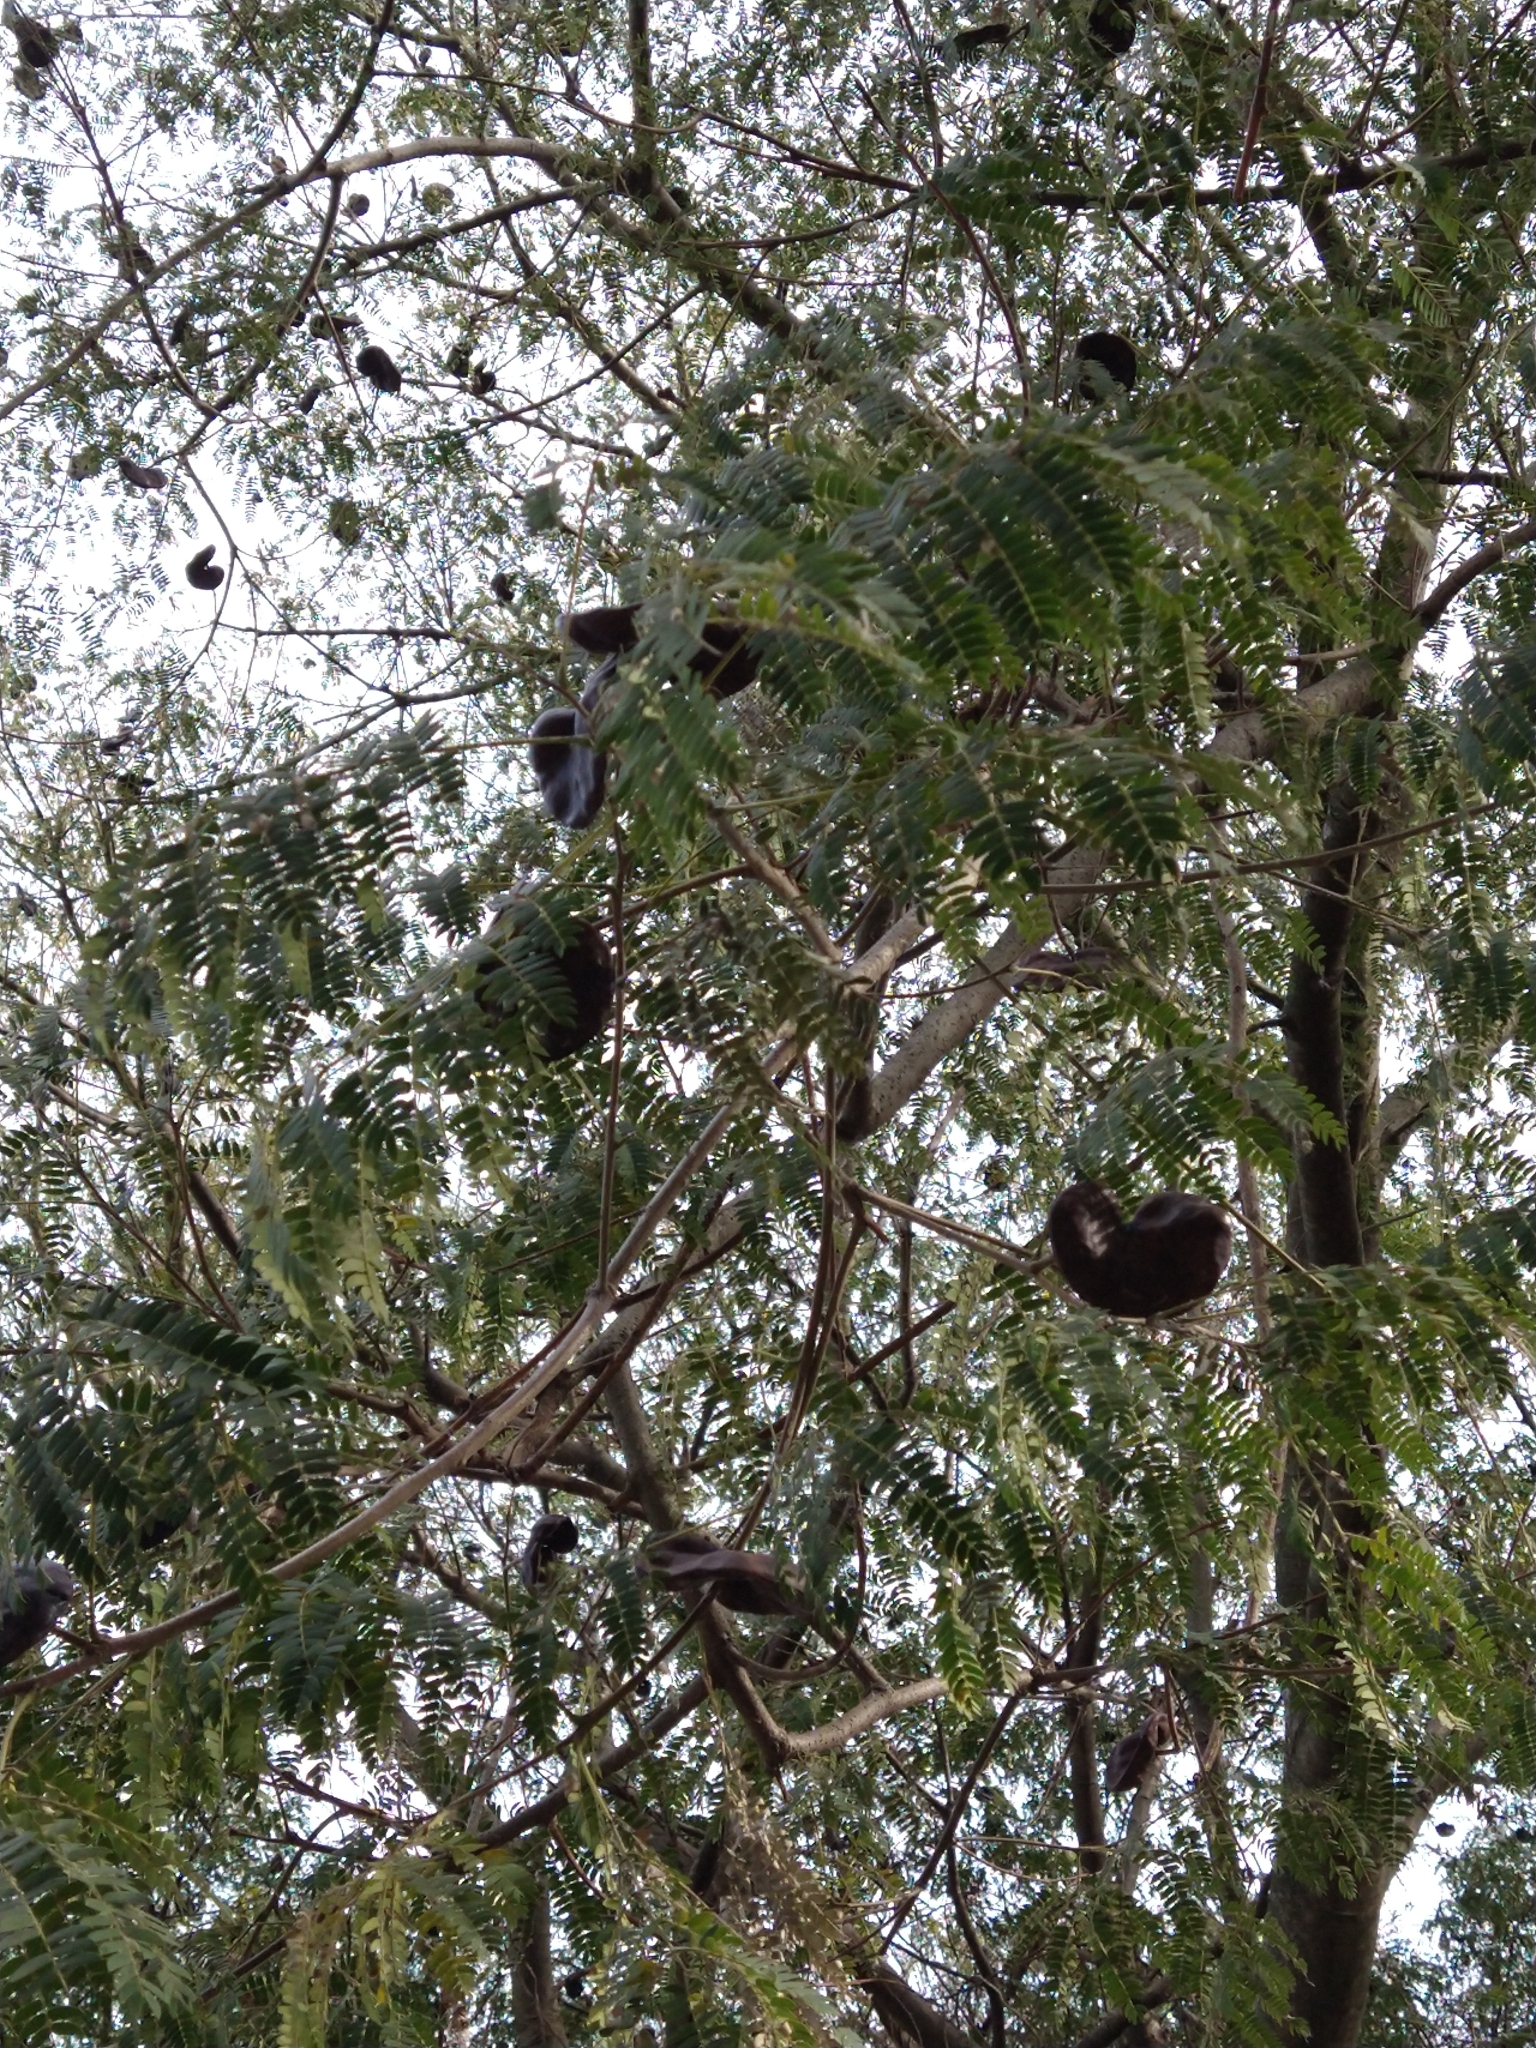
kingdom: Plantae
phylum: Tracheophyta
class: Magnoliopsida
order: Fabales
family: Fabaceae
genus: Enterolobium
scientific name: Enterolobium contortisiliquum
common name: Pacara earpod tree
